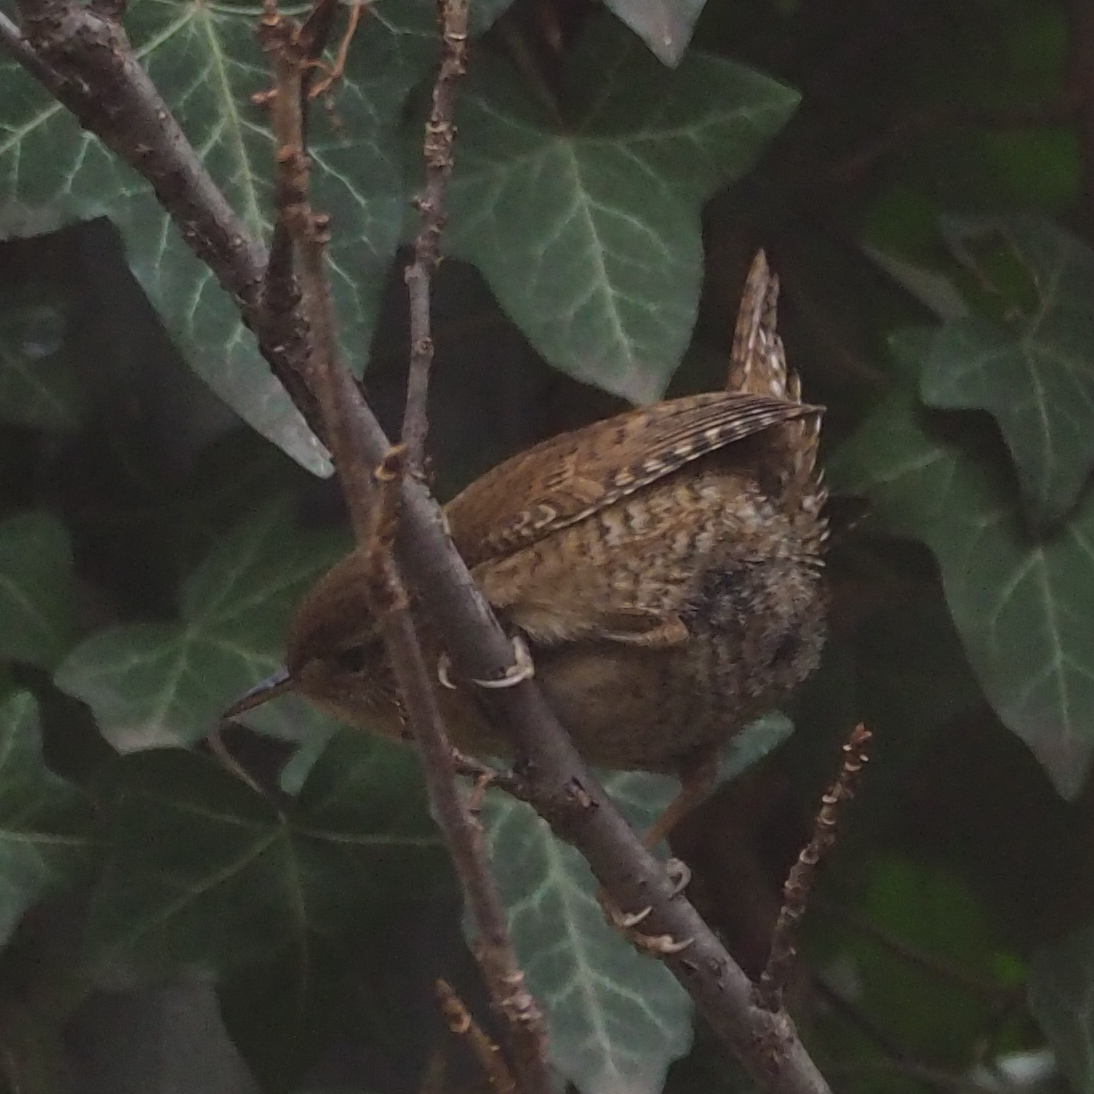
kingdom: Animalia
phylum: Chordata
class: Aves
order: Passeriformes
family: Troglodytidae
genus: Troglodytes
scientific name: Troglodytes troglodytes
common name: Eurasian wren
